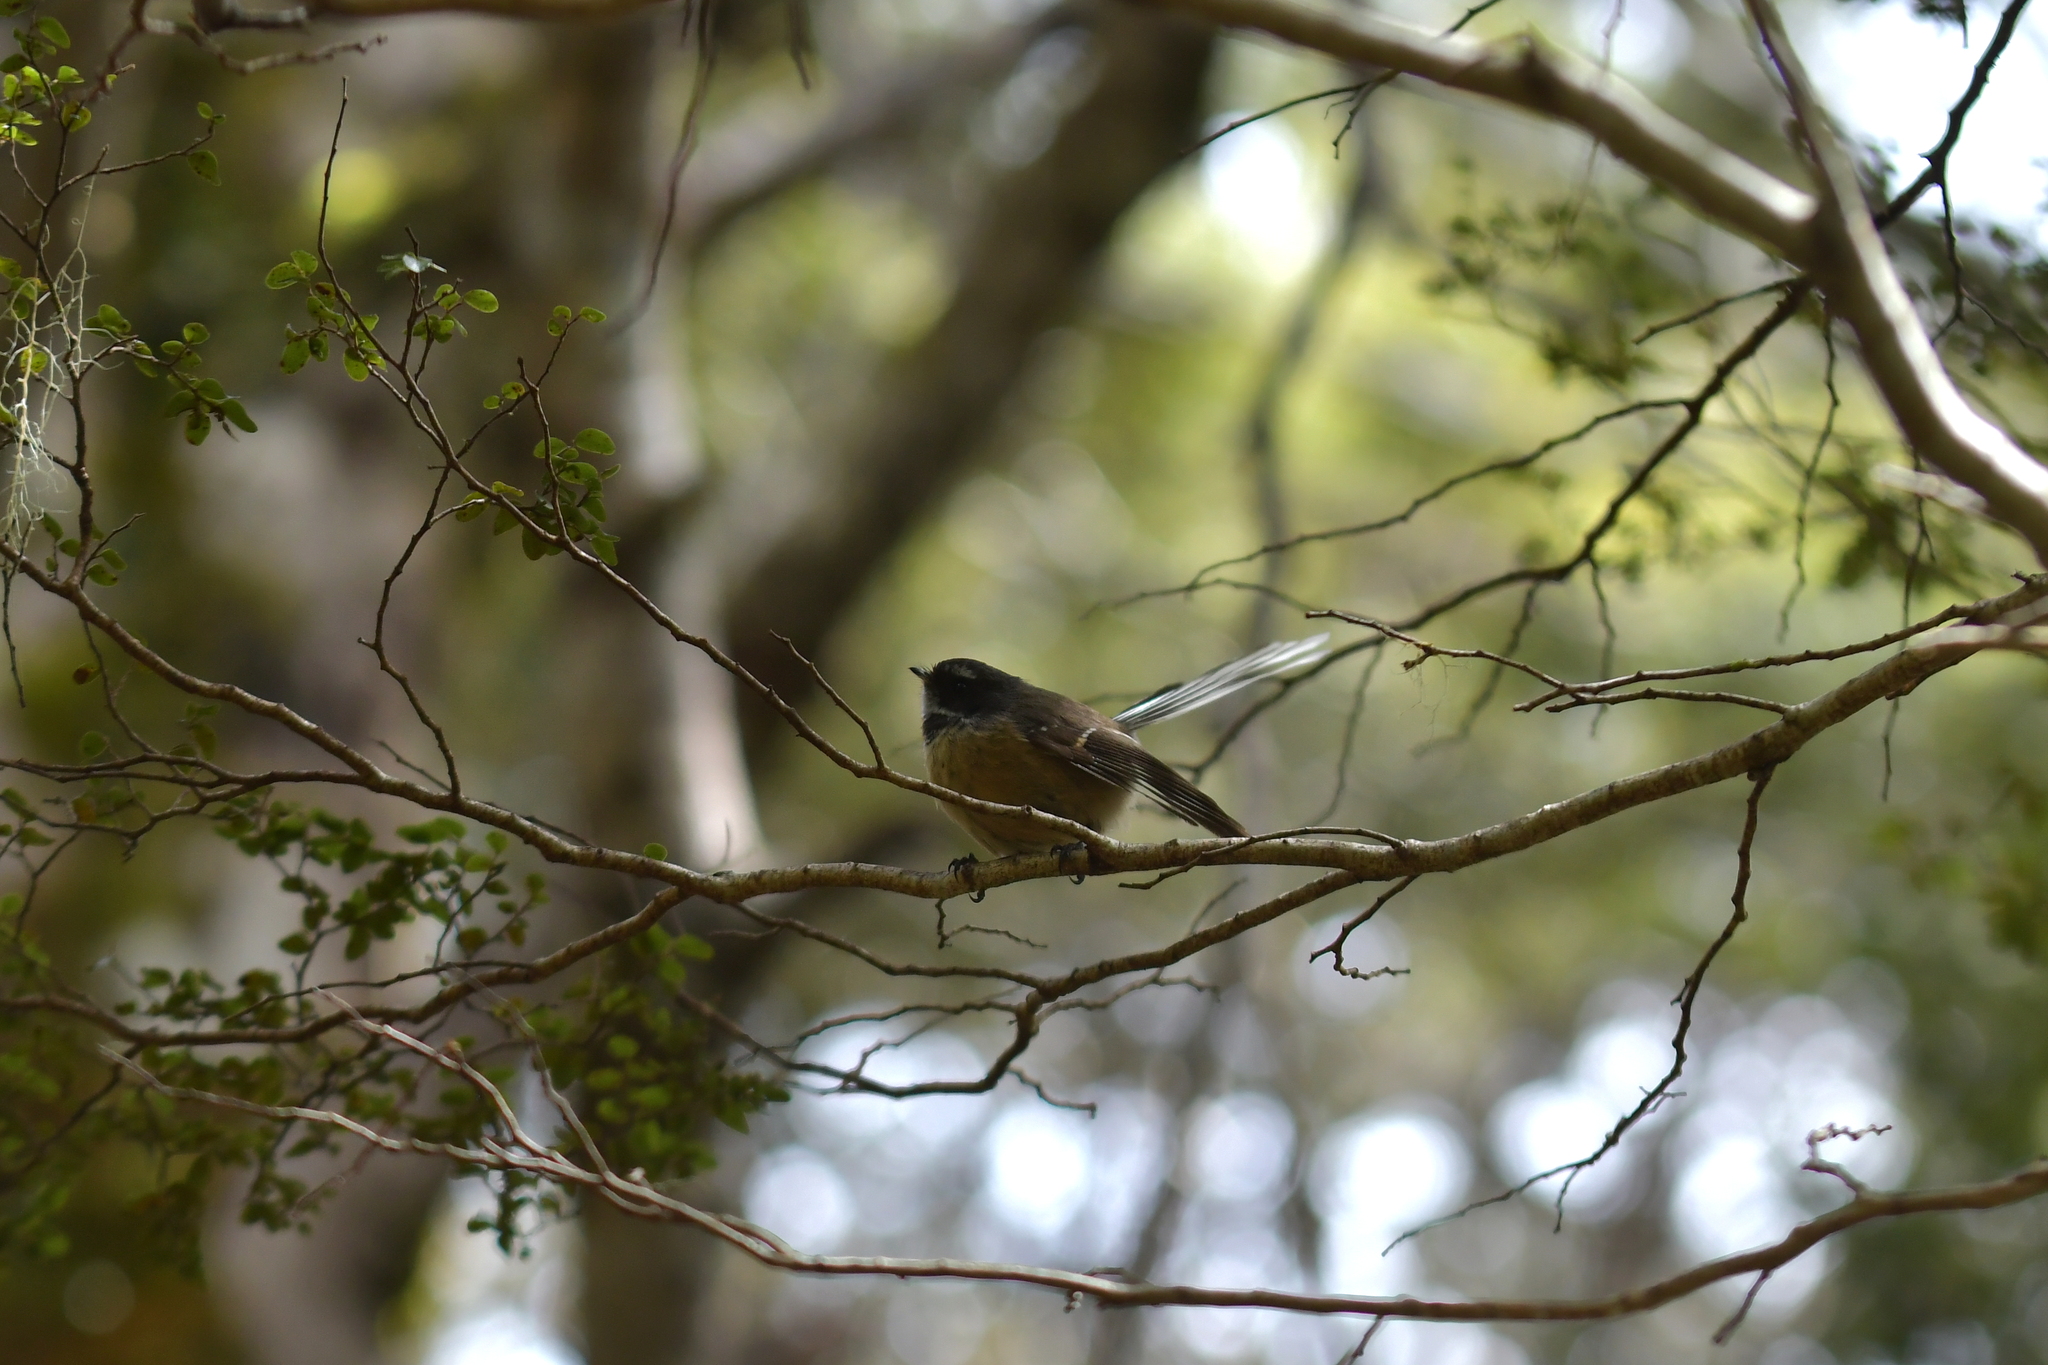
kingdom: Animalia
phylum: Chordata
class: Aves
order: Passeriformes
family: Rhipiduridae
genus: Rhipidura
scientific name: Rhipidura fuliginosa
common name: New zealand fantail
